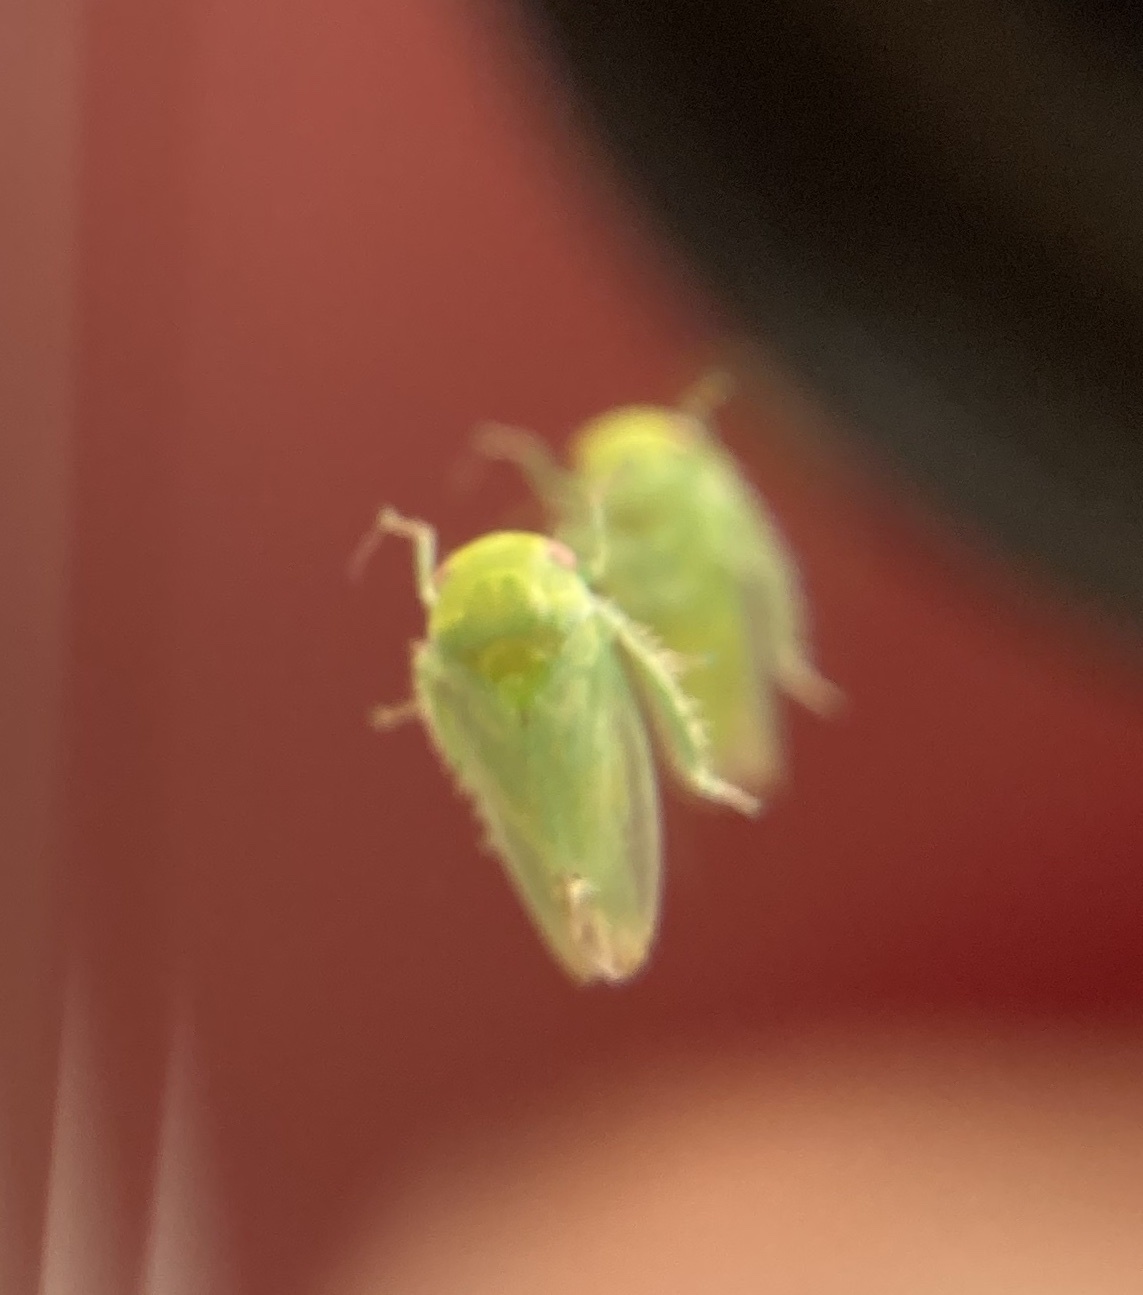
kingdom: Animalia
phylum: Arthropoda
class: Insecta
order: Hemiptera
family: Cicadellidae
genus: Stragania
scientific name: Stragania alabamensis
